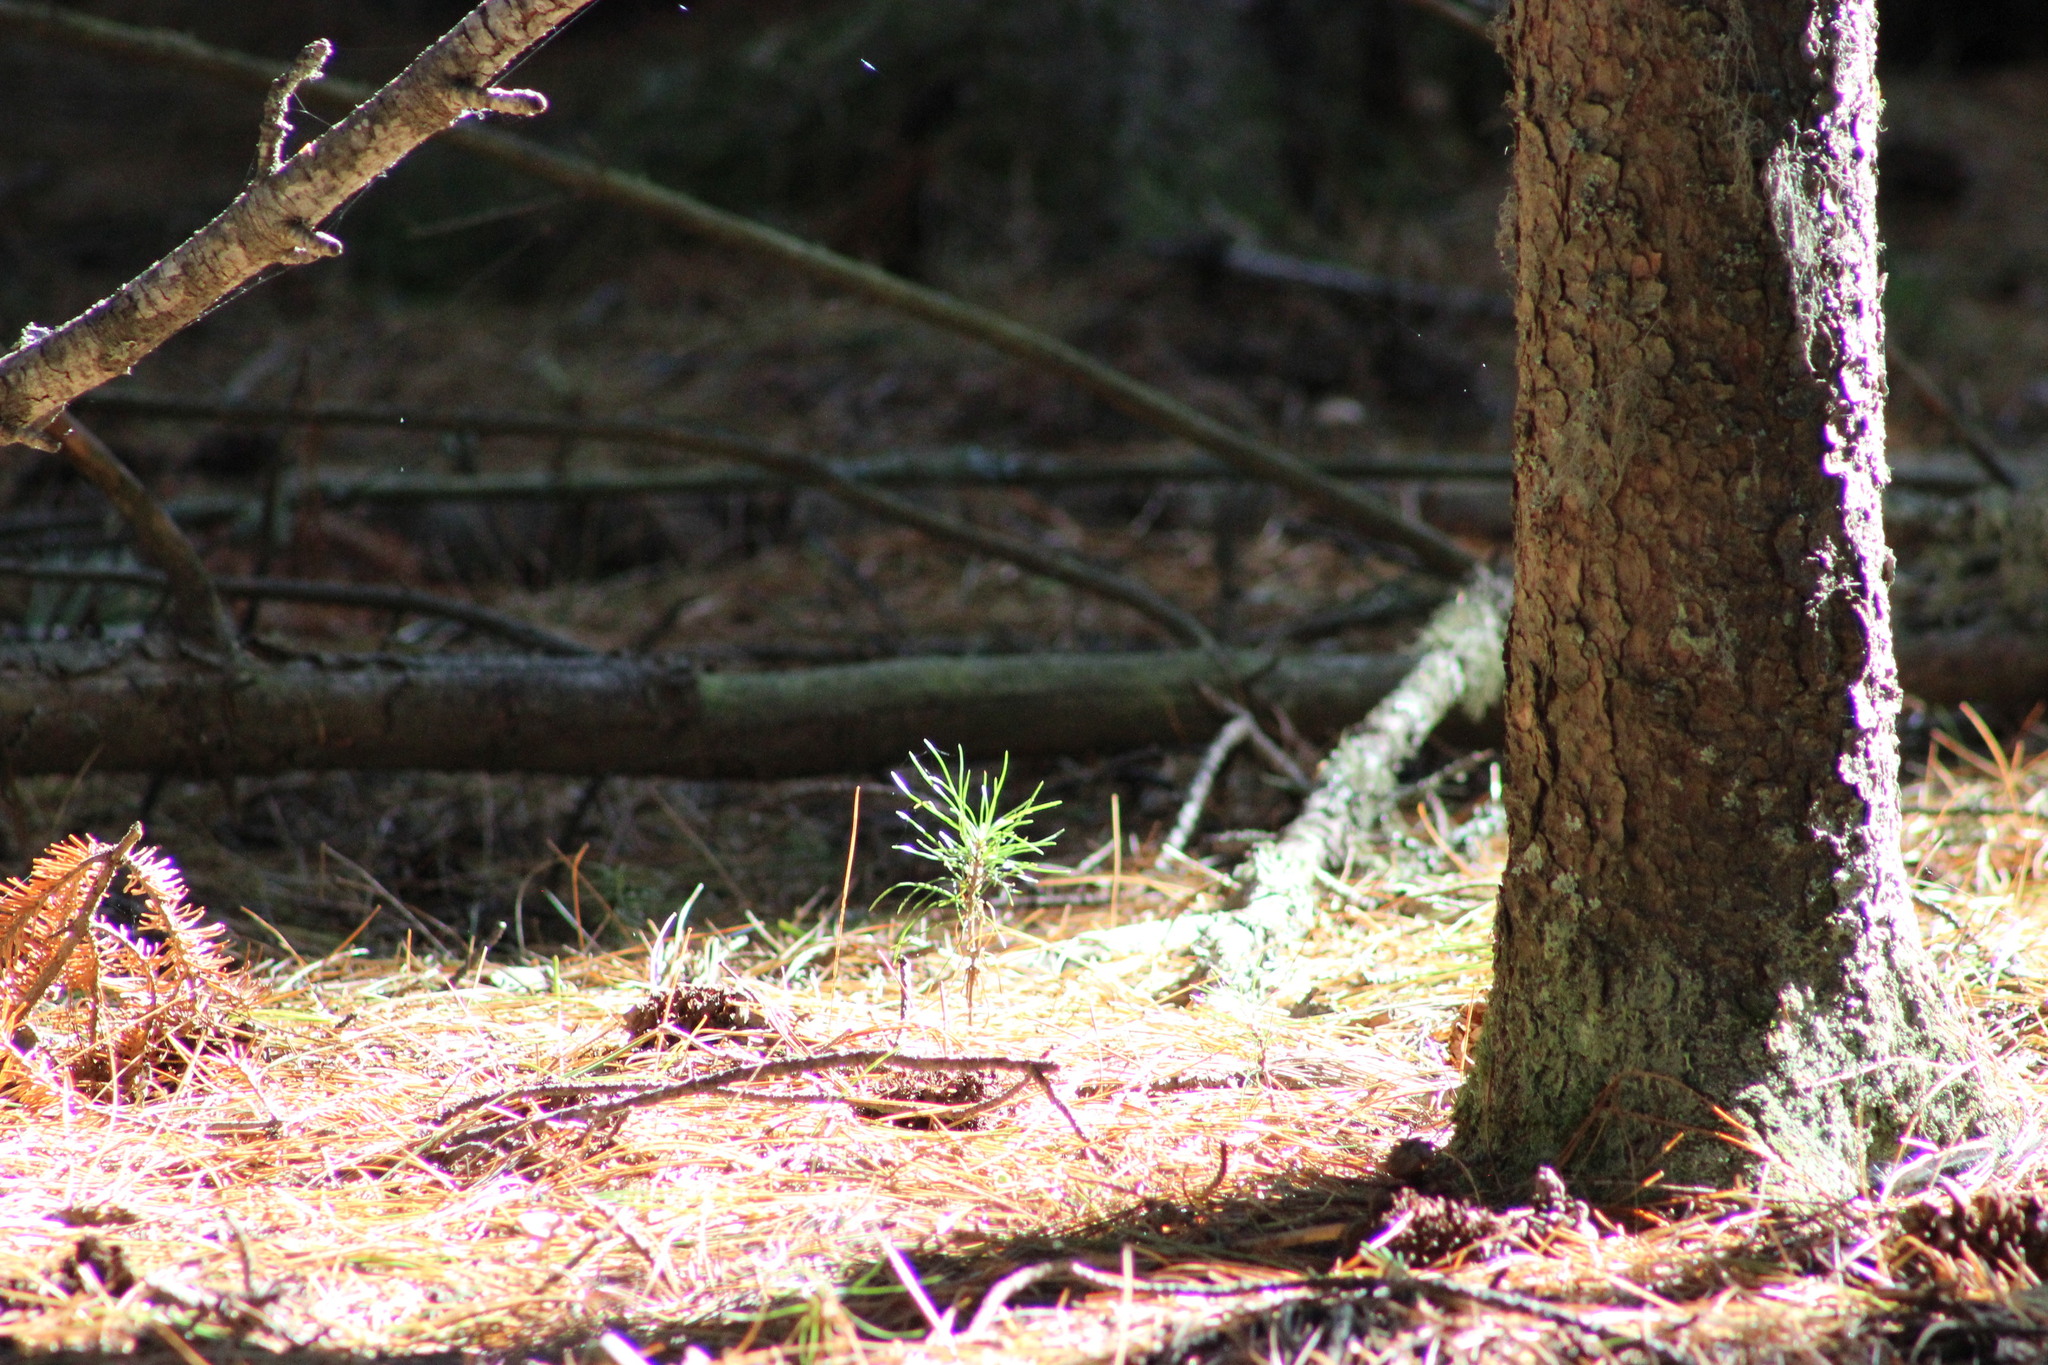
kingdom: Plantae
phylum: Tracheophyta
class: Pinopsida
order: Pinales
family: Pinaceae
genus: Pinus
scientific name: Pinus sibirica
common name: Siberian pine
